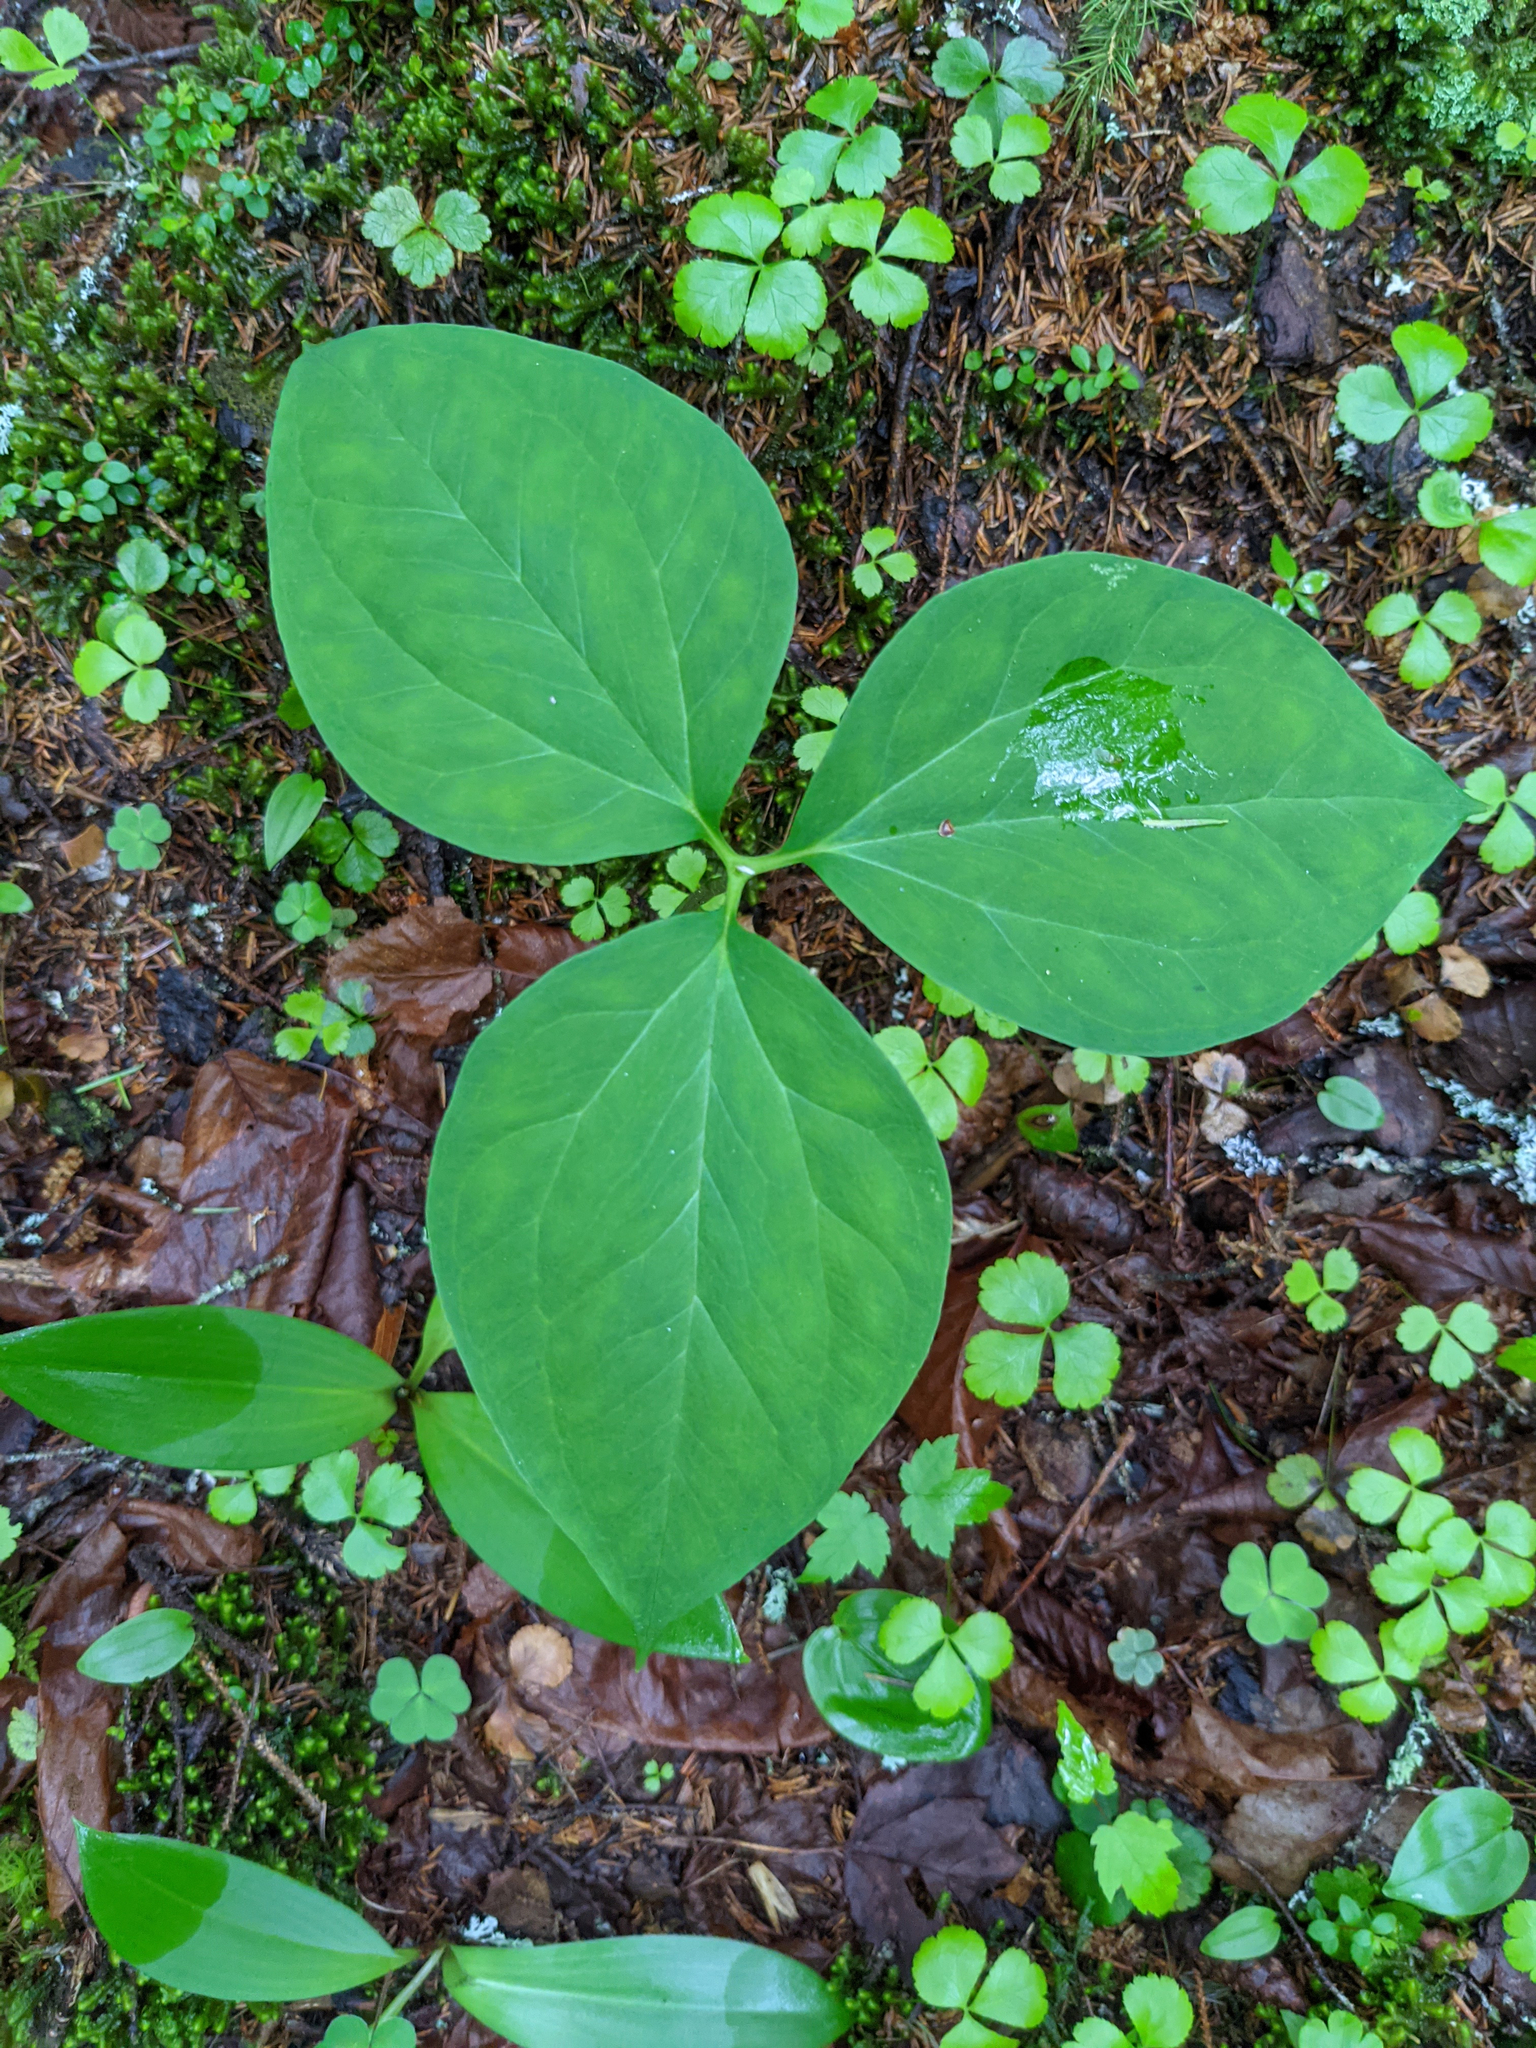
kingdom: Plantae
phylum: Tracheophyta
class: Liliopsida
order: Liliales
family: Melanthiaceae
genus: Trillium
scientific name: Trillium undulatum
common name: Paint trillium
